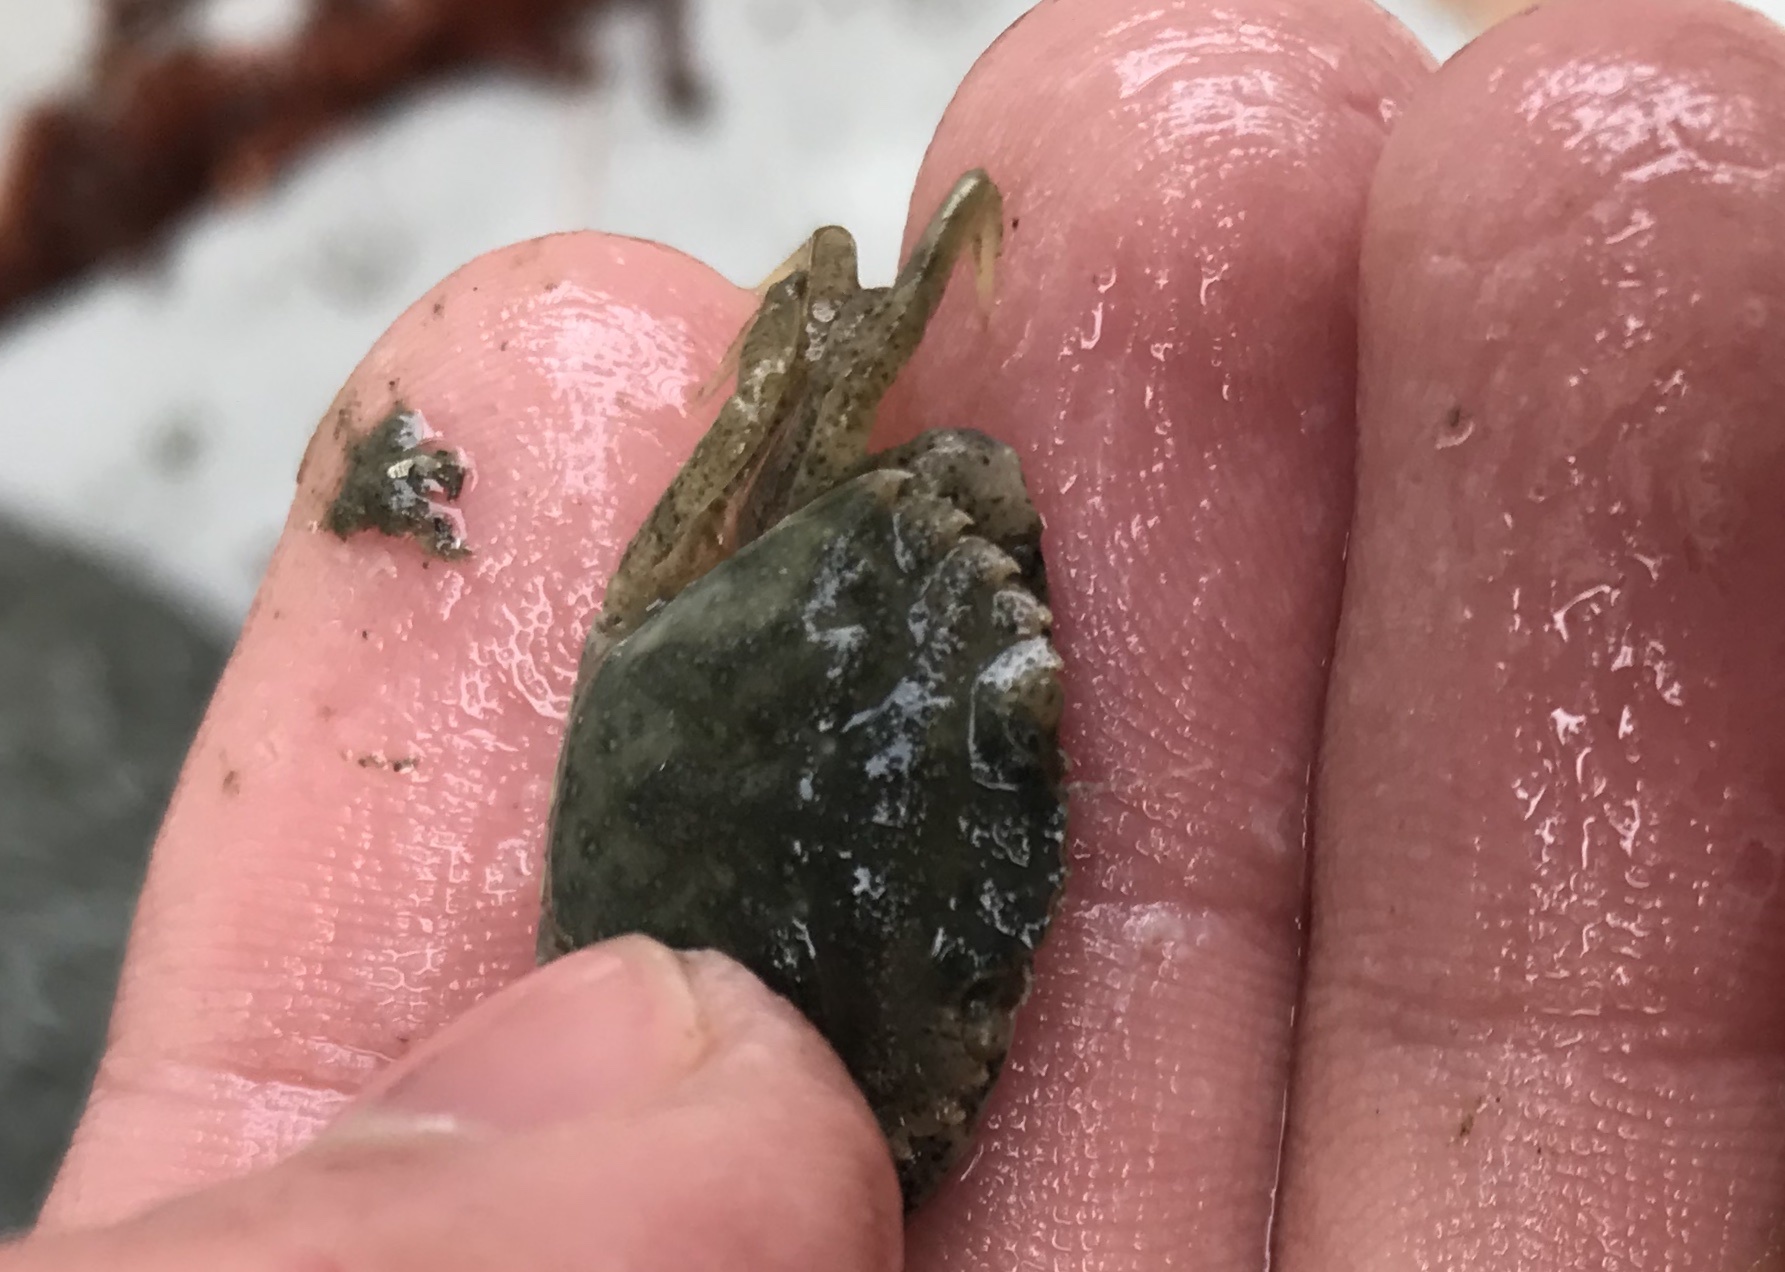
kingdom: Animalia
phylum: Arthropoda
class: Malacostraca
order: Decapoda
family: Carcinidae
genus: Carcinus
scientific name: Carcinus maenas
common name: European green crab
